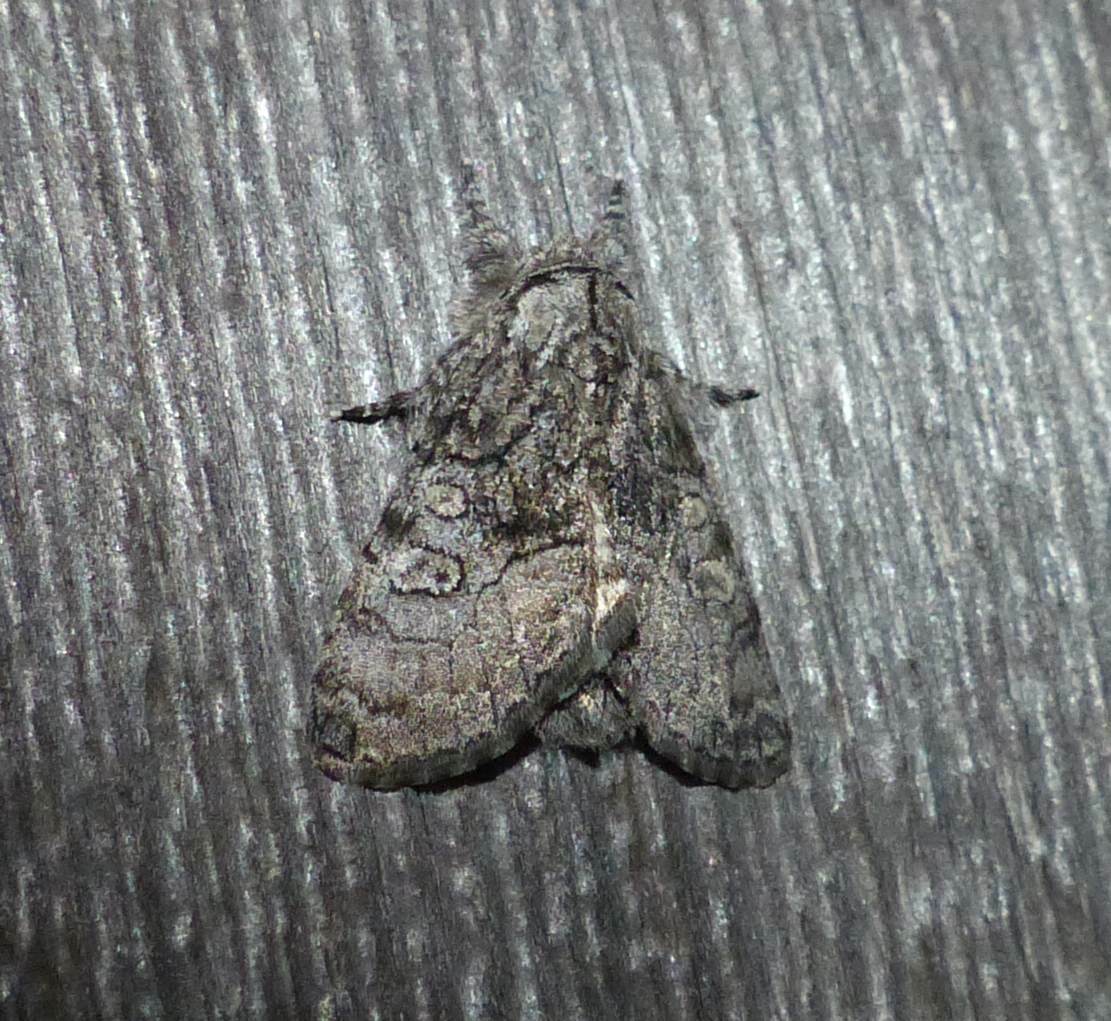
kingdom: Animalia
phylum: Arthropoda
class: Insecta
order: Lepidoptera
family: Noctuidae
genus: Raphia
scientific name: Raphia frater
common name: Brother
